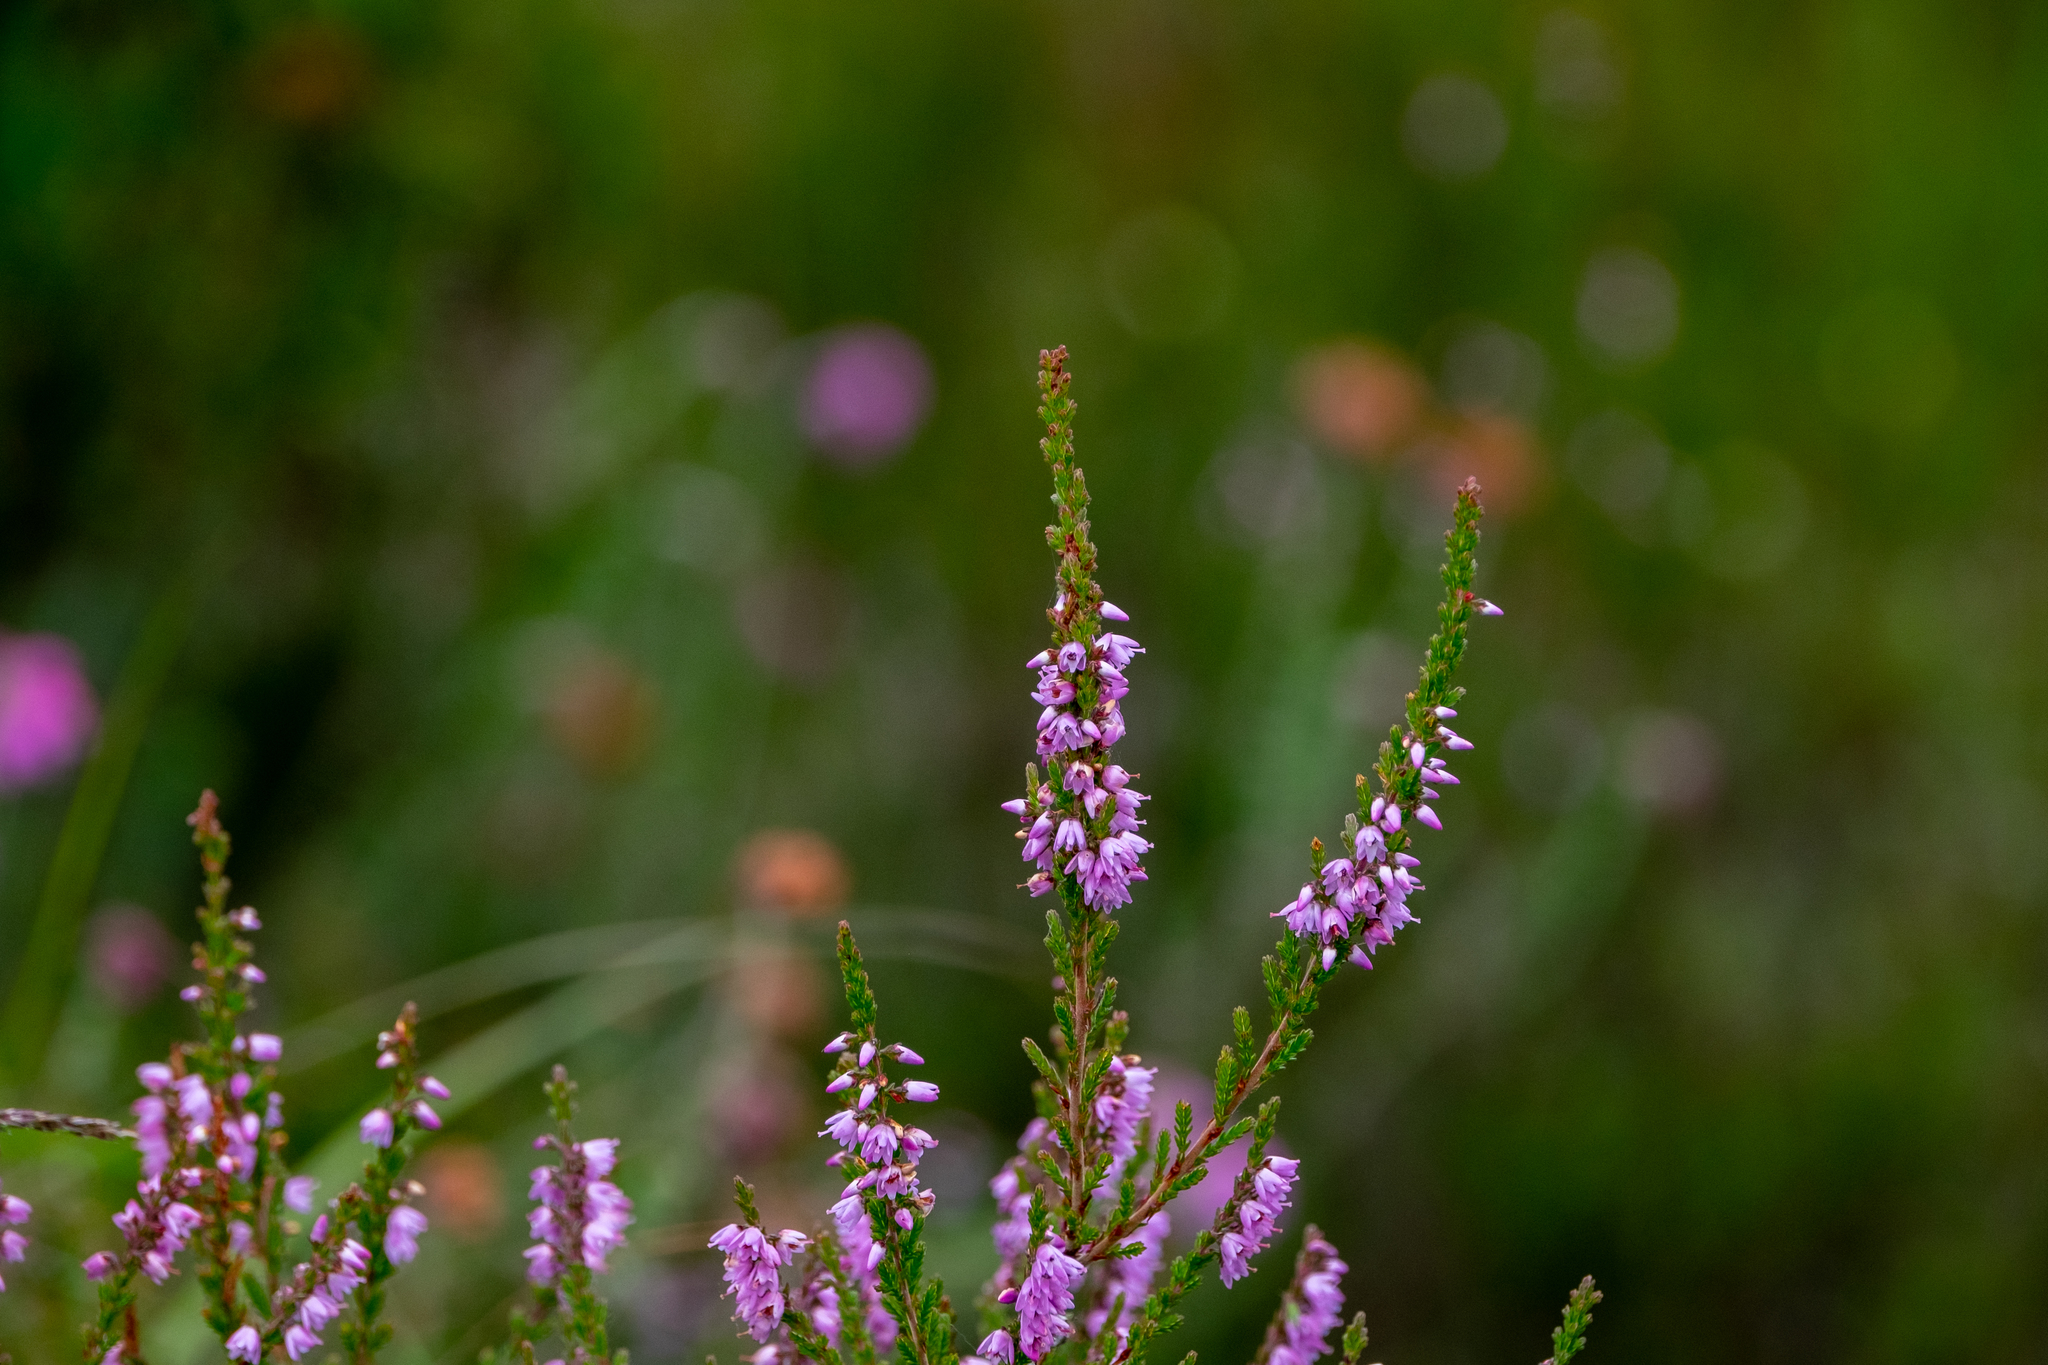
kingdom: Plantae
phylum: Tracheophyta
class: Magnoliopsida
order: Ericales
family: Ericaceae
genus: Calluna
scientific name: Calluna vulgaris
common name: Heather
